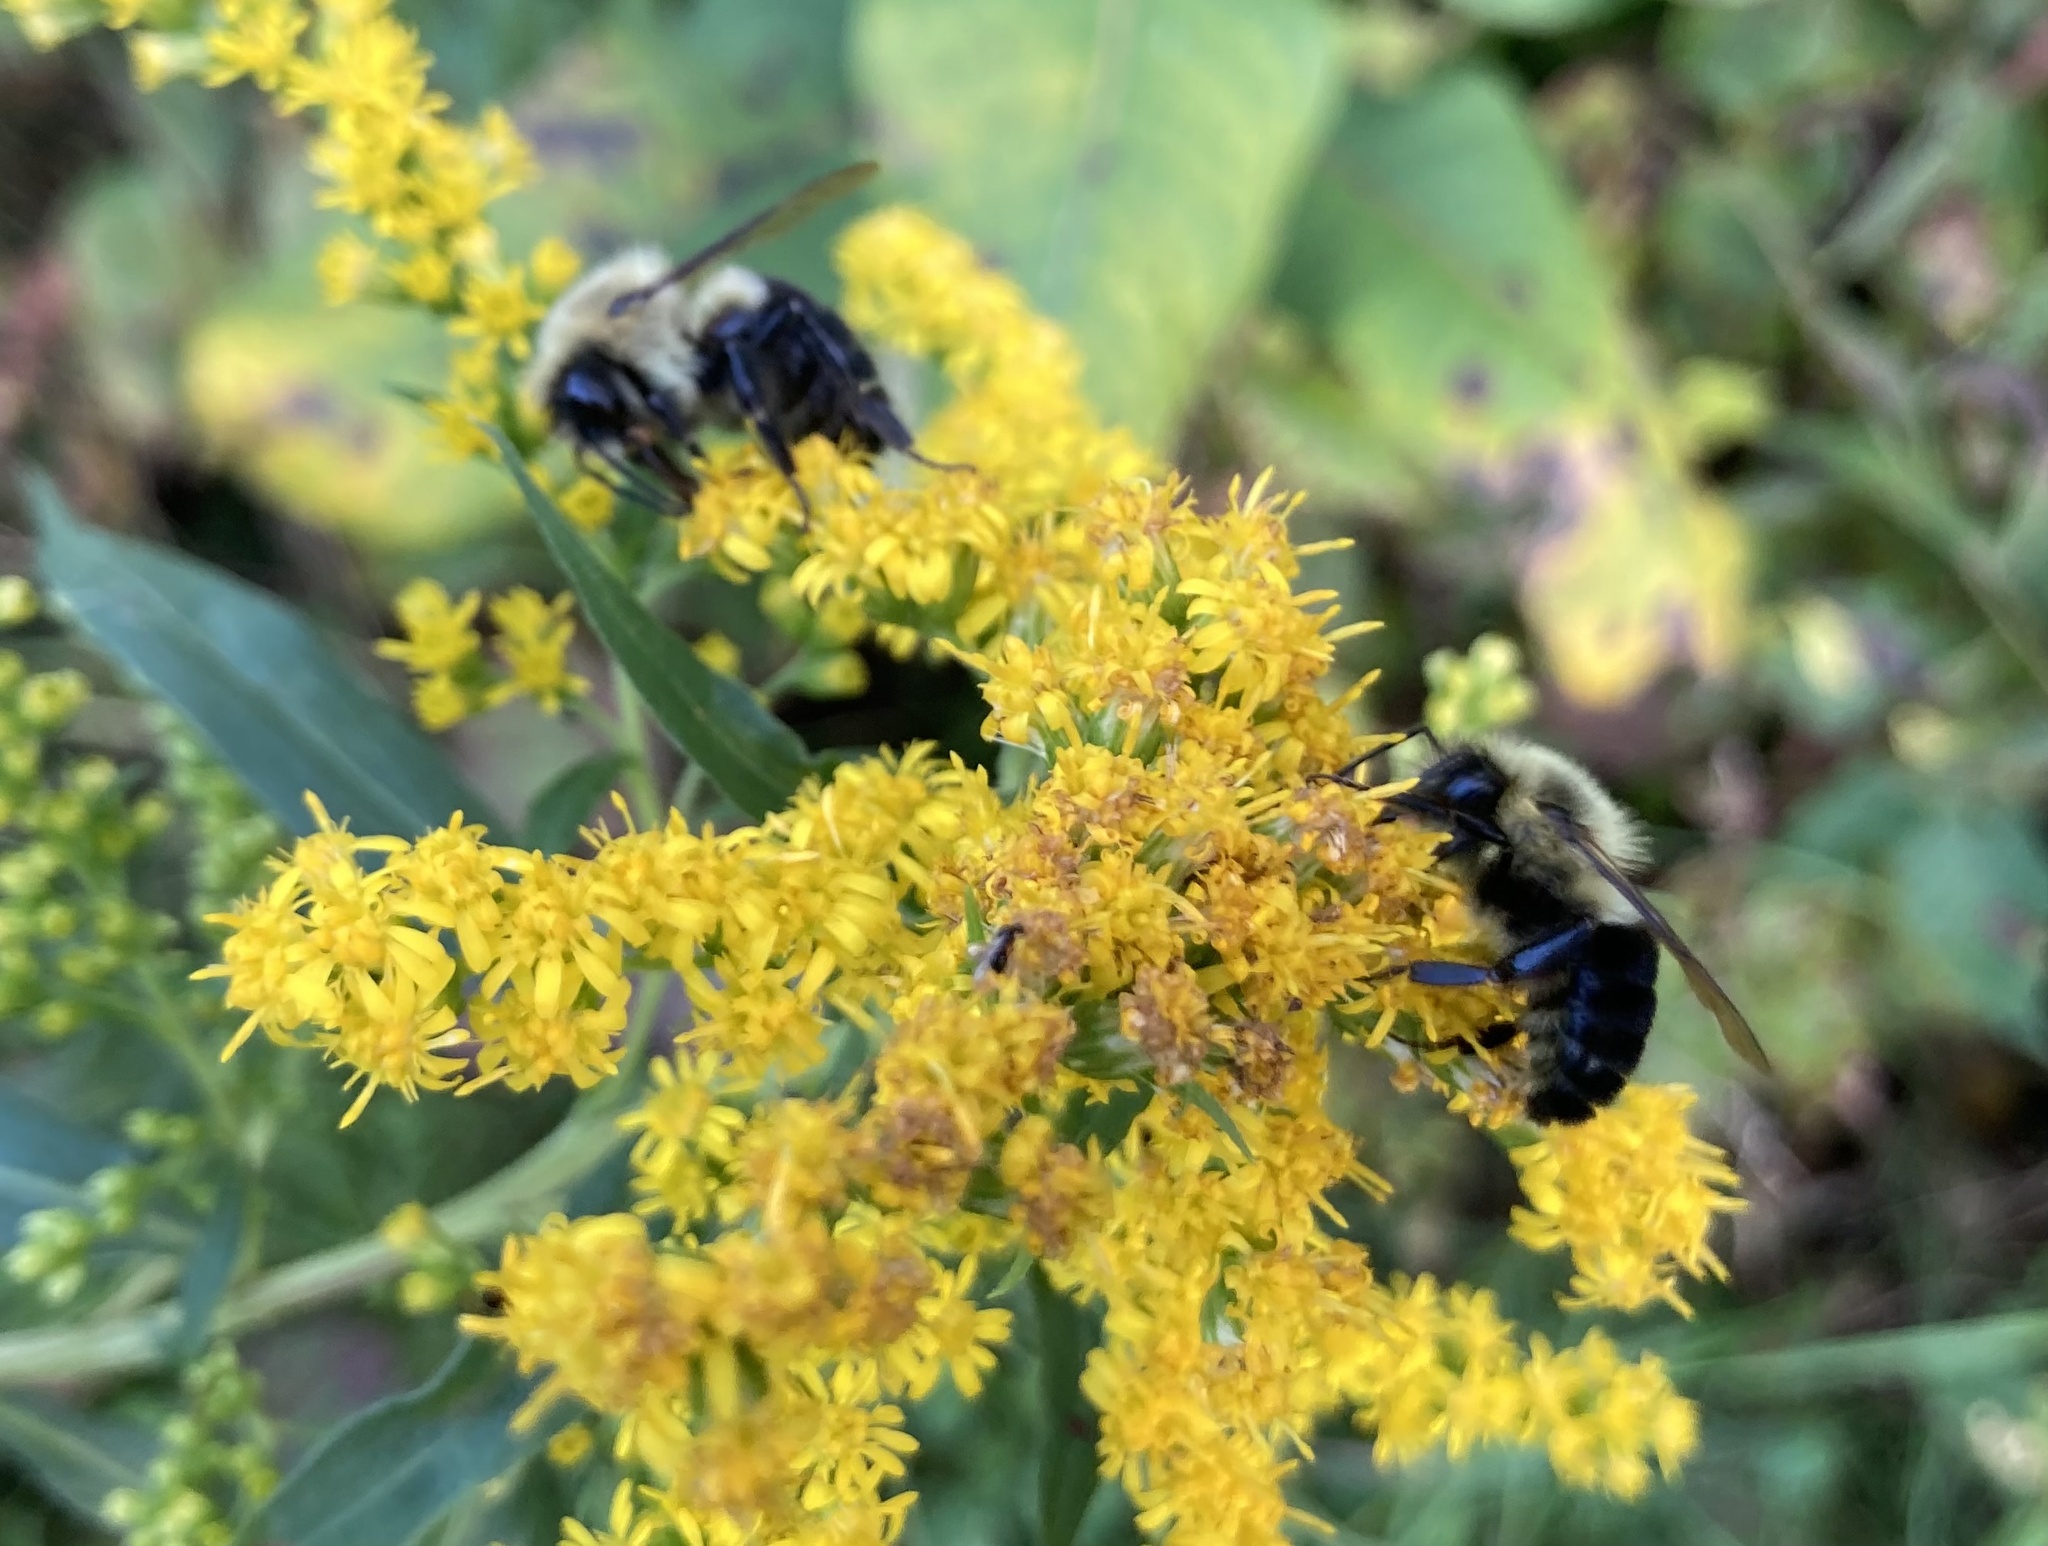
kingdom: Animalia
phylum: Arthropoda
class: Insecta
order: Hymenoptera
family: Apidae
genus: Bombus
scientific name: Bombus impatiens
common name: Common eastern bumble bee
